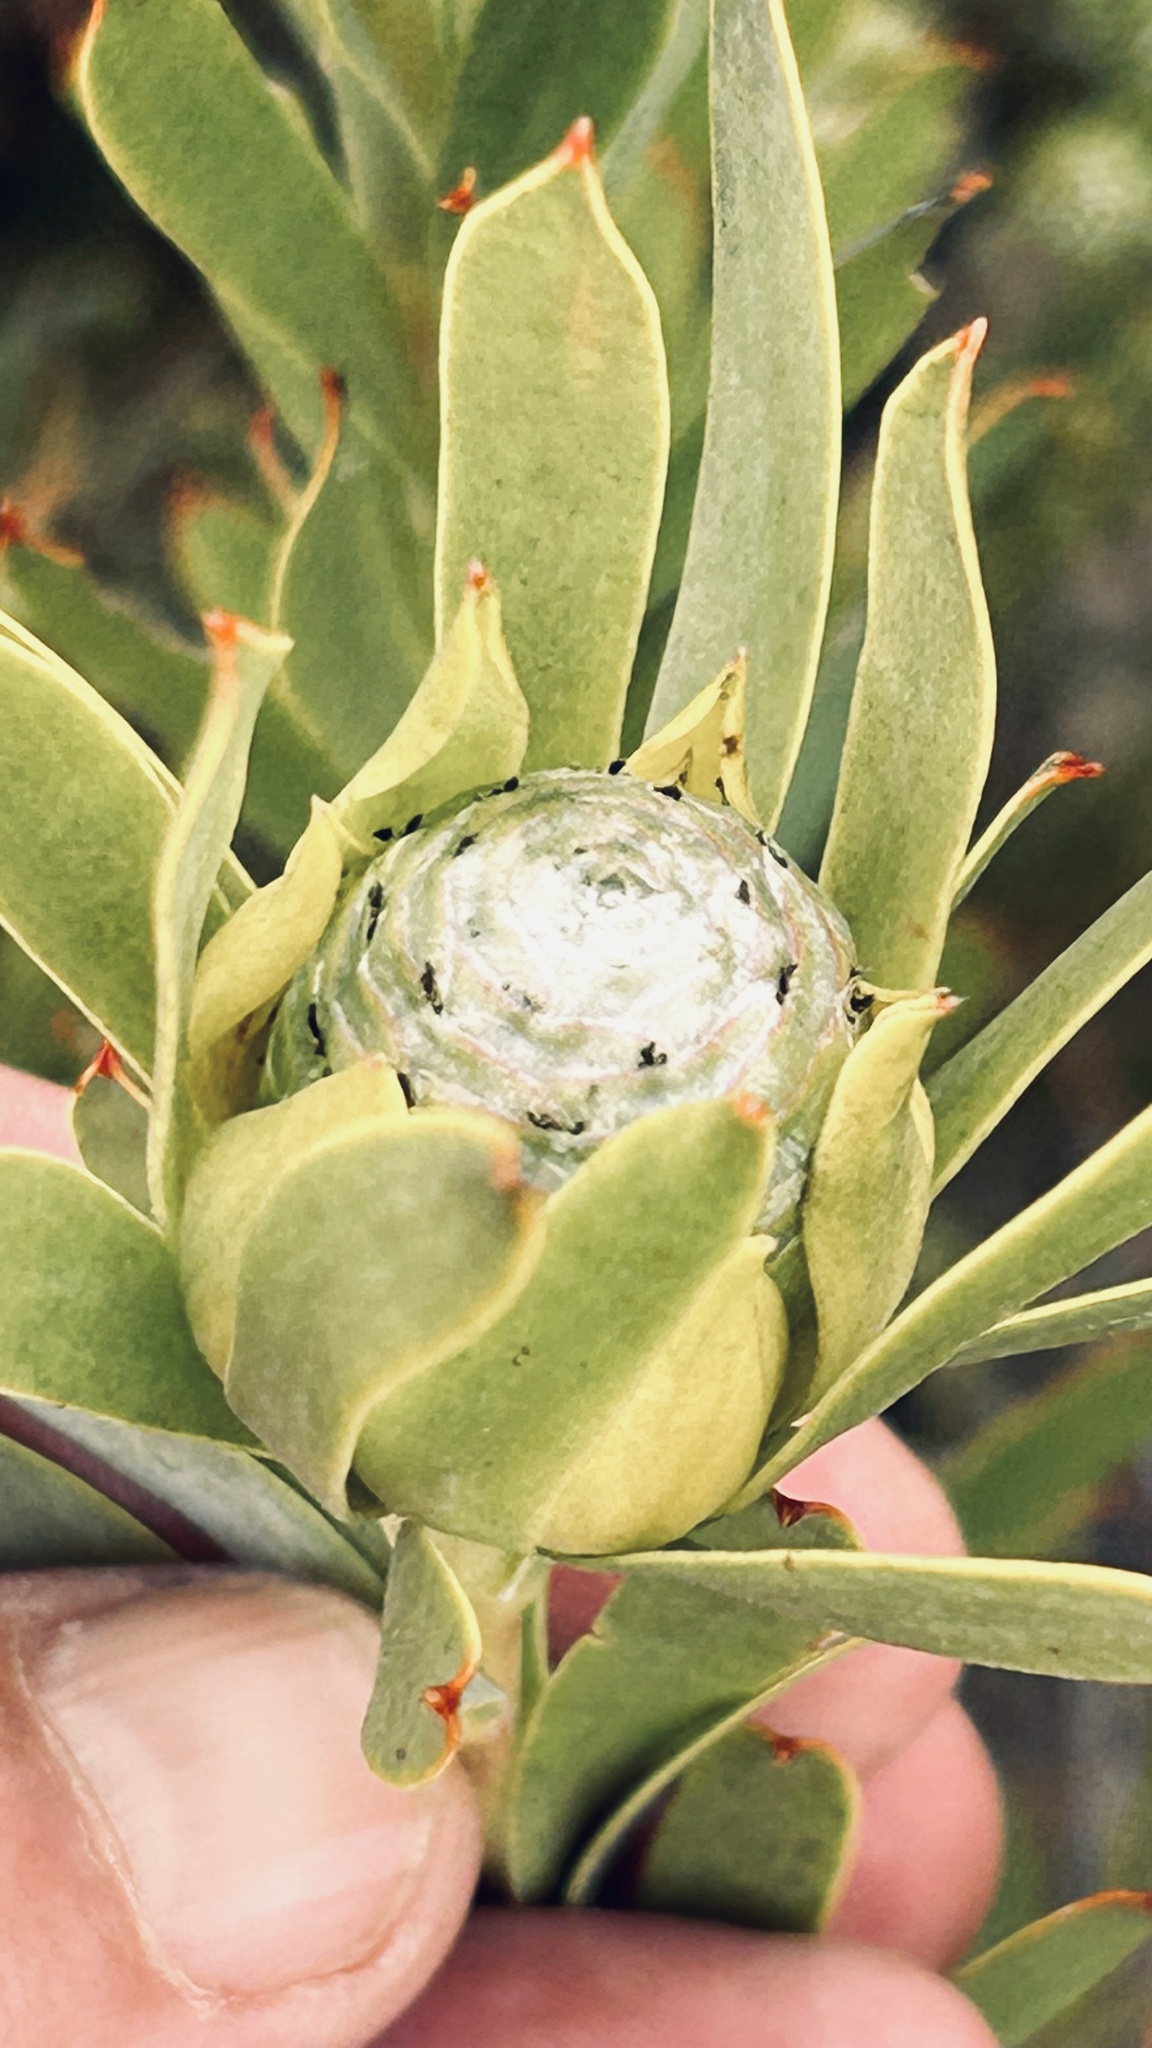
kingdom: Plantae
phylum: Tracheophyta
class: Magnoliopsida
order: Proteales
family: Proteaceae
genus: Leucadendron
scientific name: Leucadendron meridianum
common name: Limestone conebush
